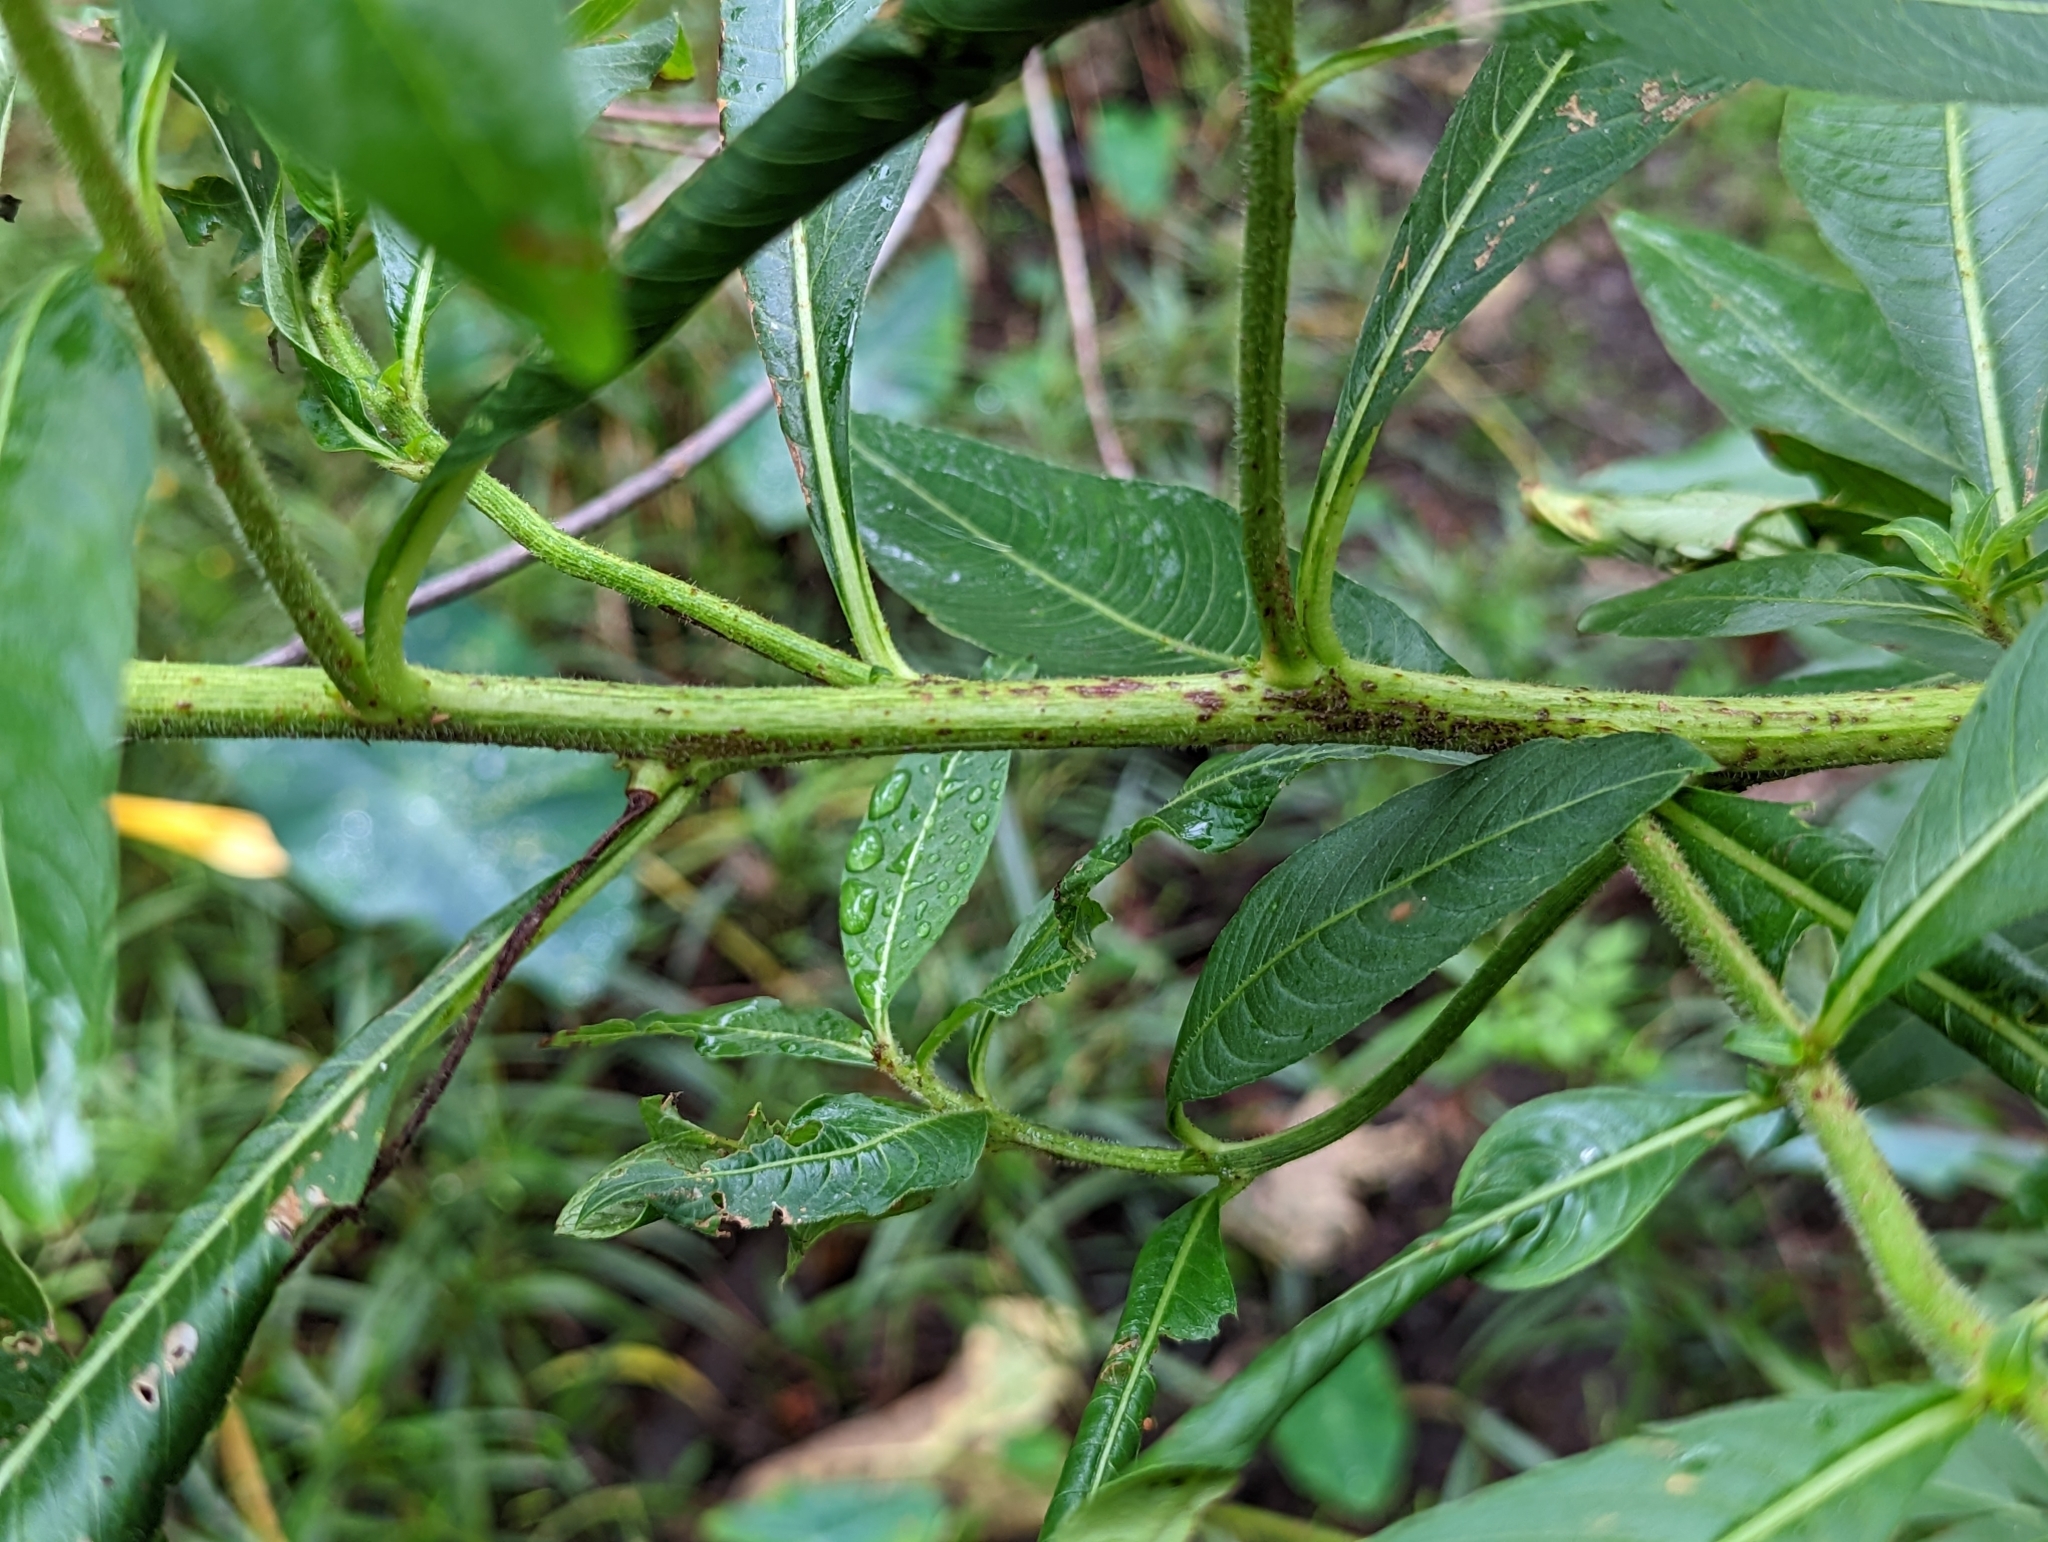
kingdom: Plantae
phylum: Tracheophyta
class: Magnoliopsida
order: Myrtales
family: Onagraceae
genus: Ludwigia
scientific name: Ludwigia peruviana
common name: Peruvian primrose-willow
